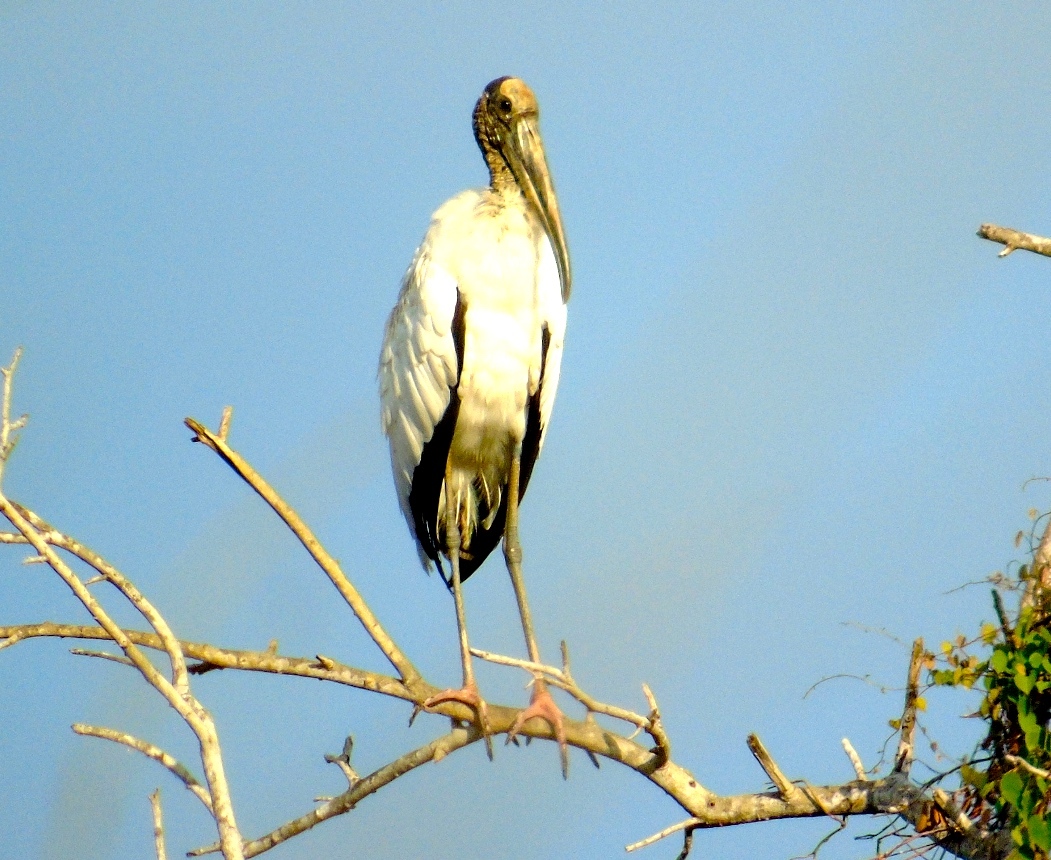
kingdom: Animalia
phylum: Chordata
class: Aves
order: Ciconiiformes
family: Ciconiidae
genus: Mycteria
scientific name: Mycteria americana
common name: Wood stork
